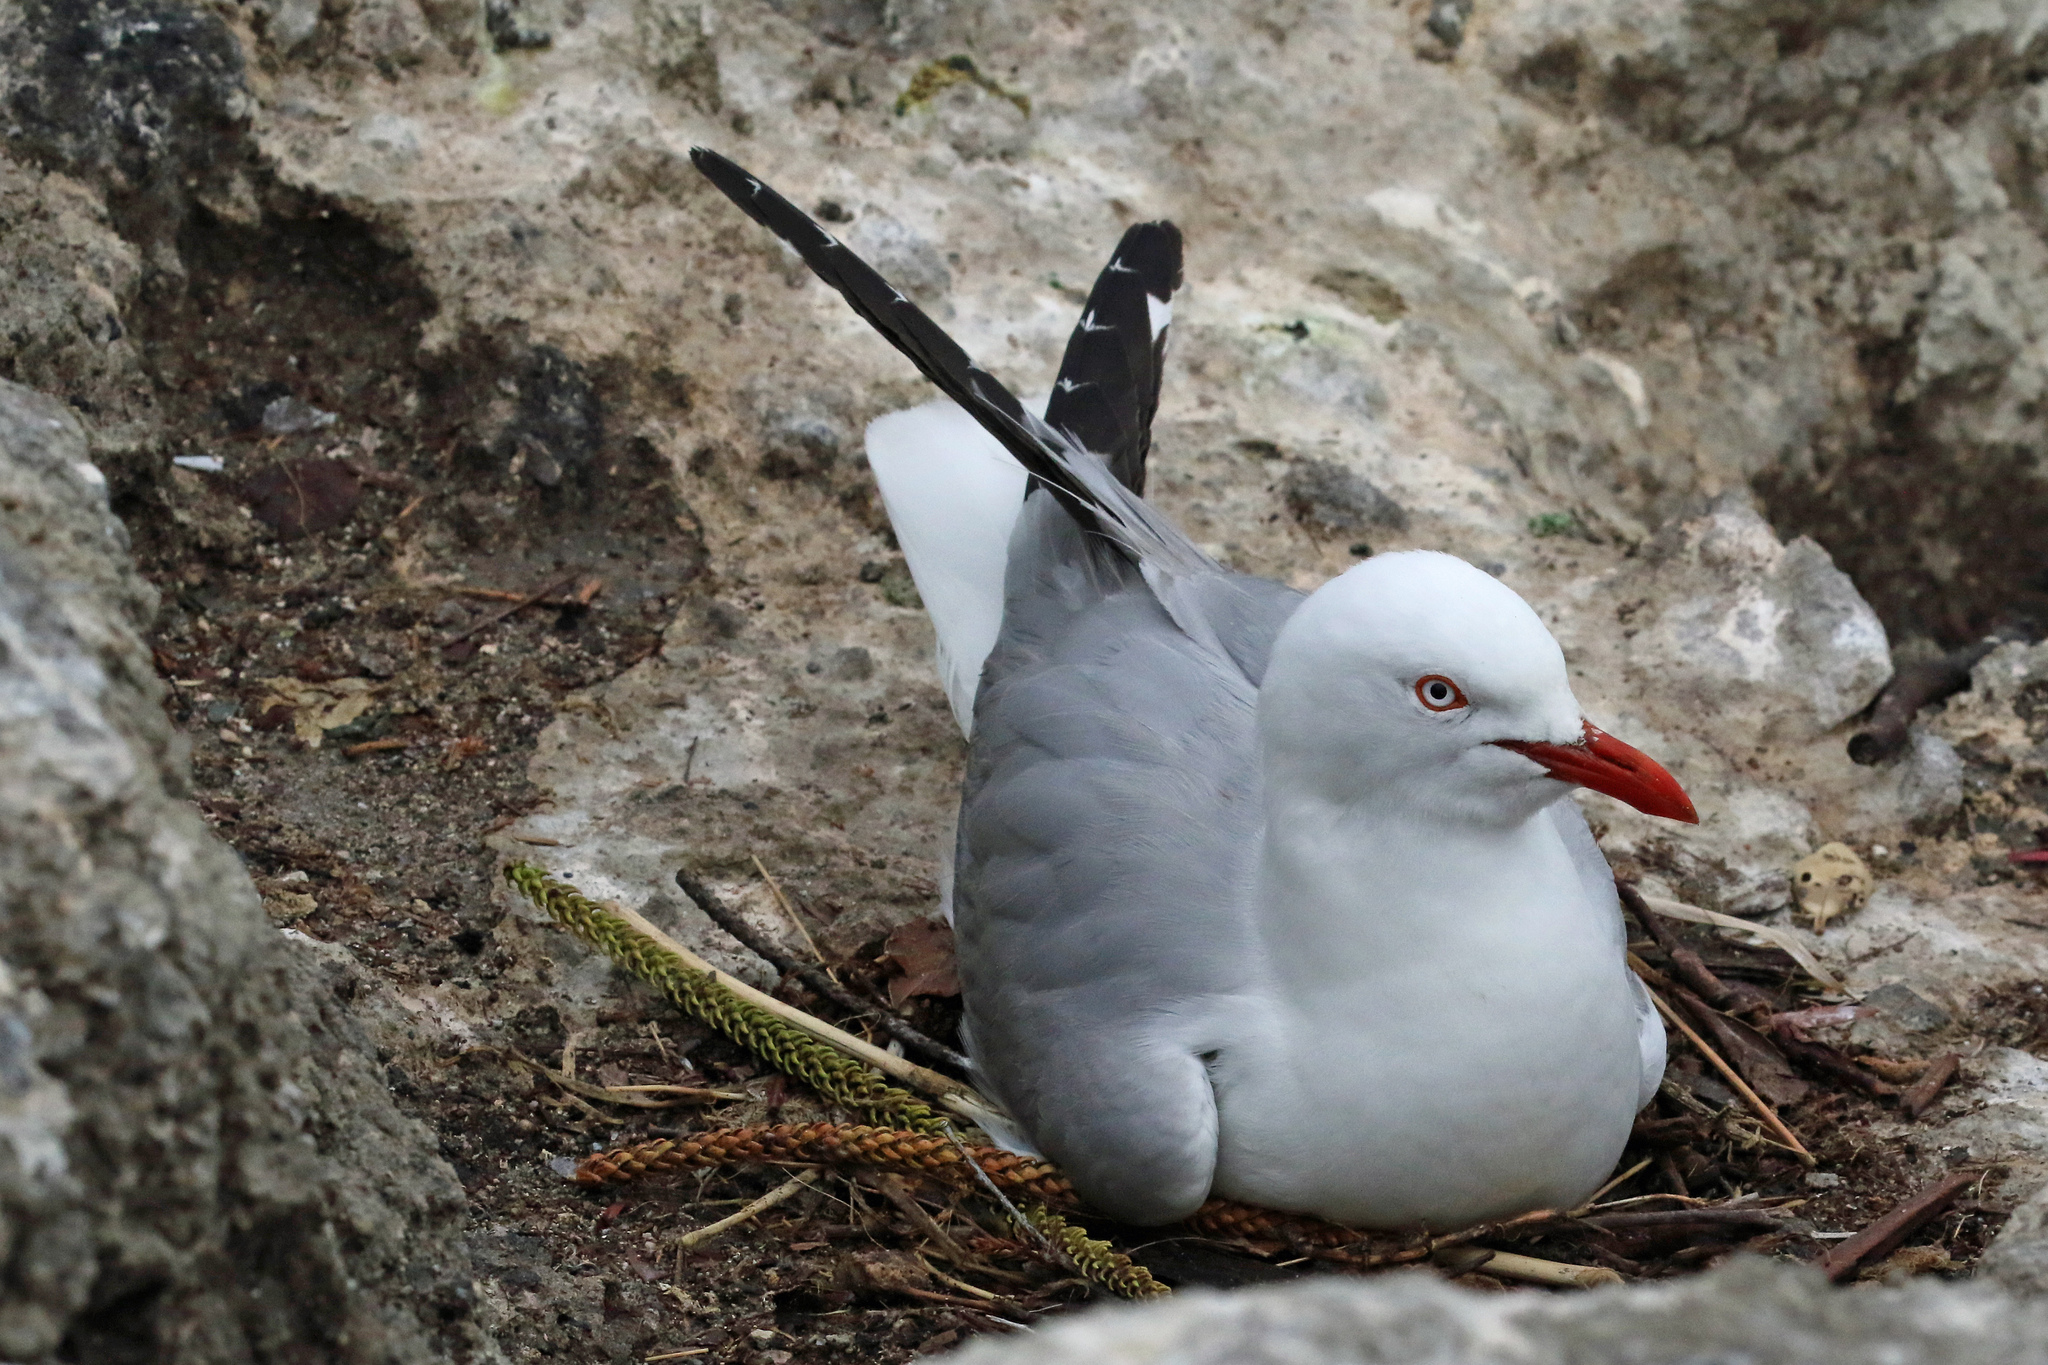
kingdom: Animalia
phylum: Chordata
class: Aves
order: Charadriiformes
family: Laridae
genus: Chroicocephalus
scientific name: Chroicocephalus novaehollandiae
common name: Silver gull
